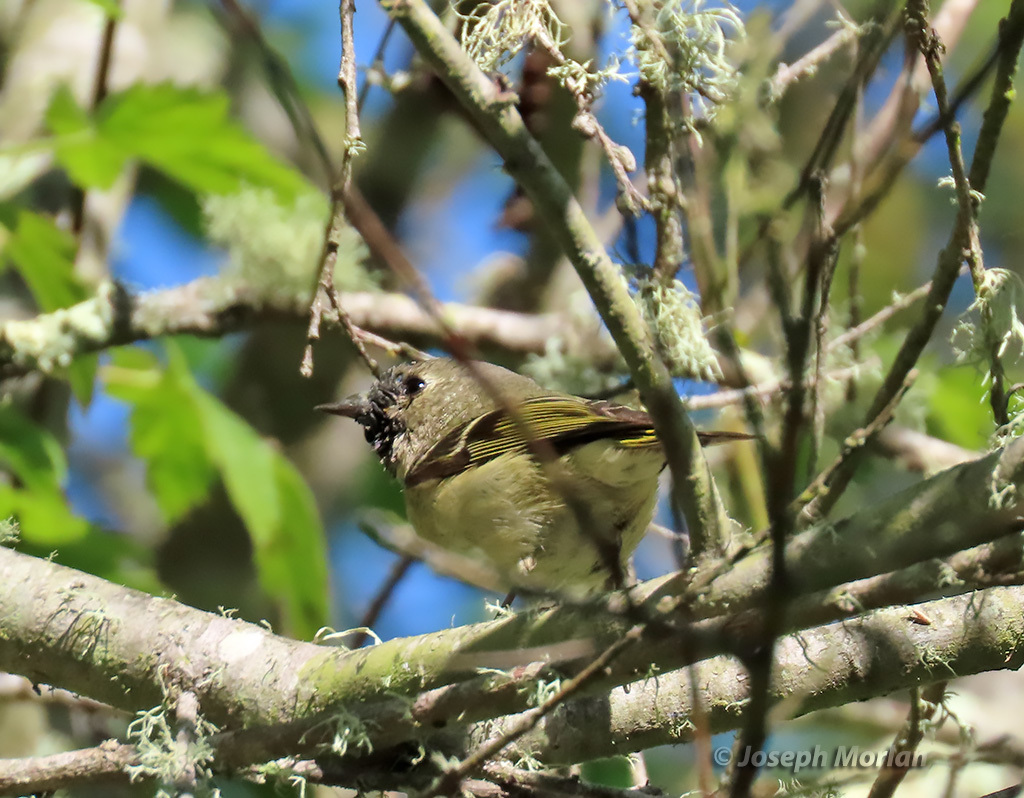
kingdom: Animalia
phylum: Chordata
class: Aves
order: Passeriformes
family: Regulidae
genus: Regulus
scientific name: Regulus calendula
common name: Ruby-crowned kinglet
